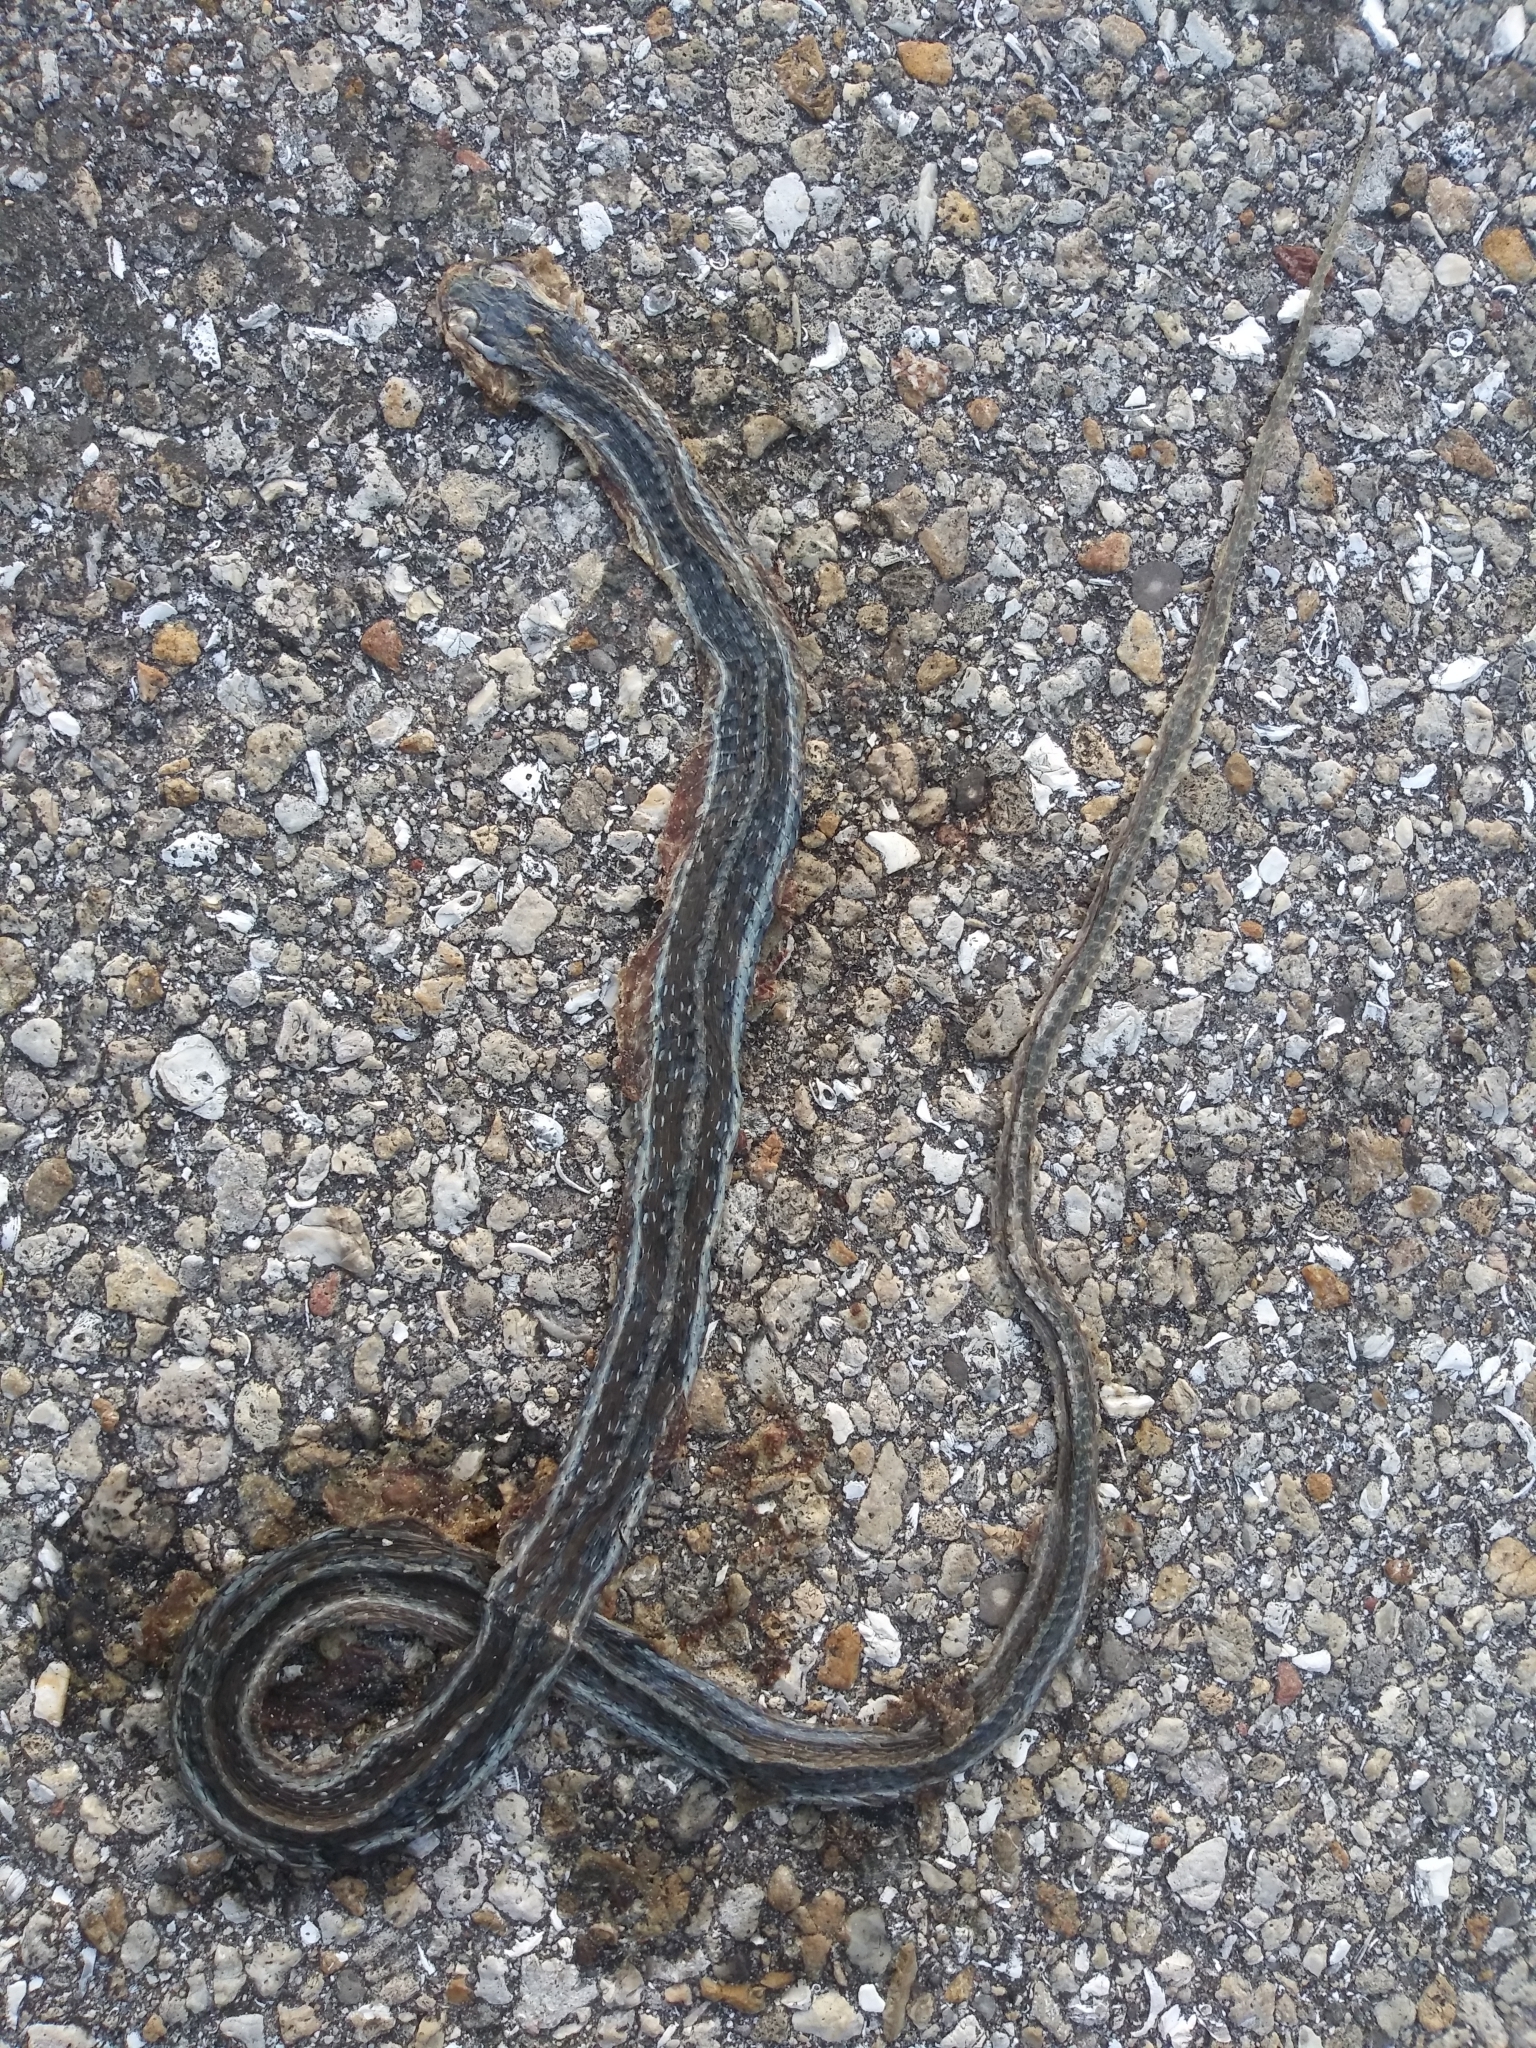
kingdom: Animalia
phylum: Chordata
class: Squamata
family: Colubridae
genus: Thamnophis
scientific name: Thamnophis saurita
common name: Eastern ribbonsnake
